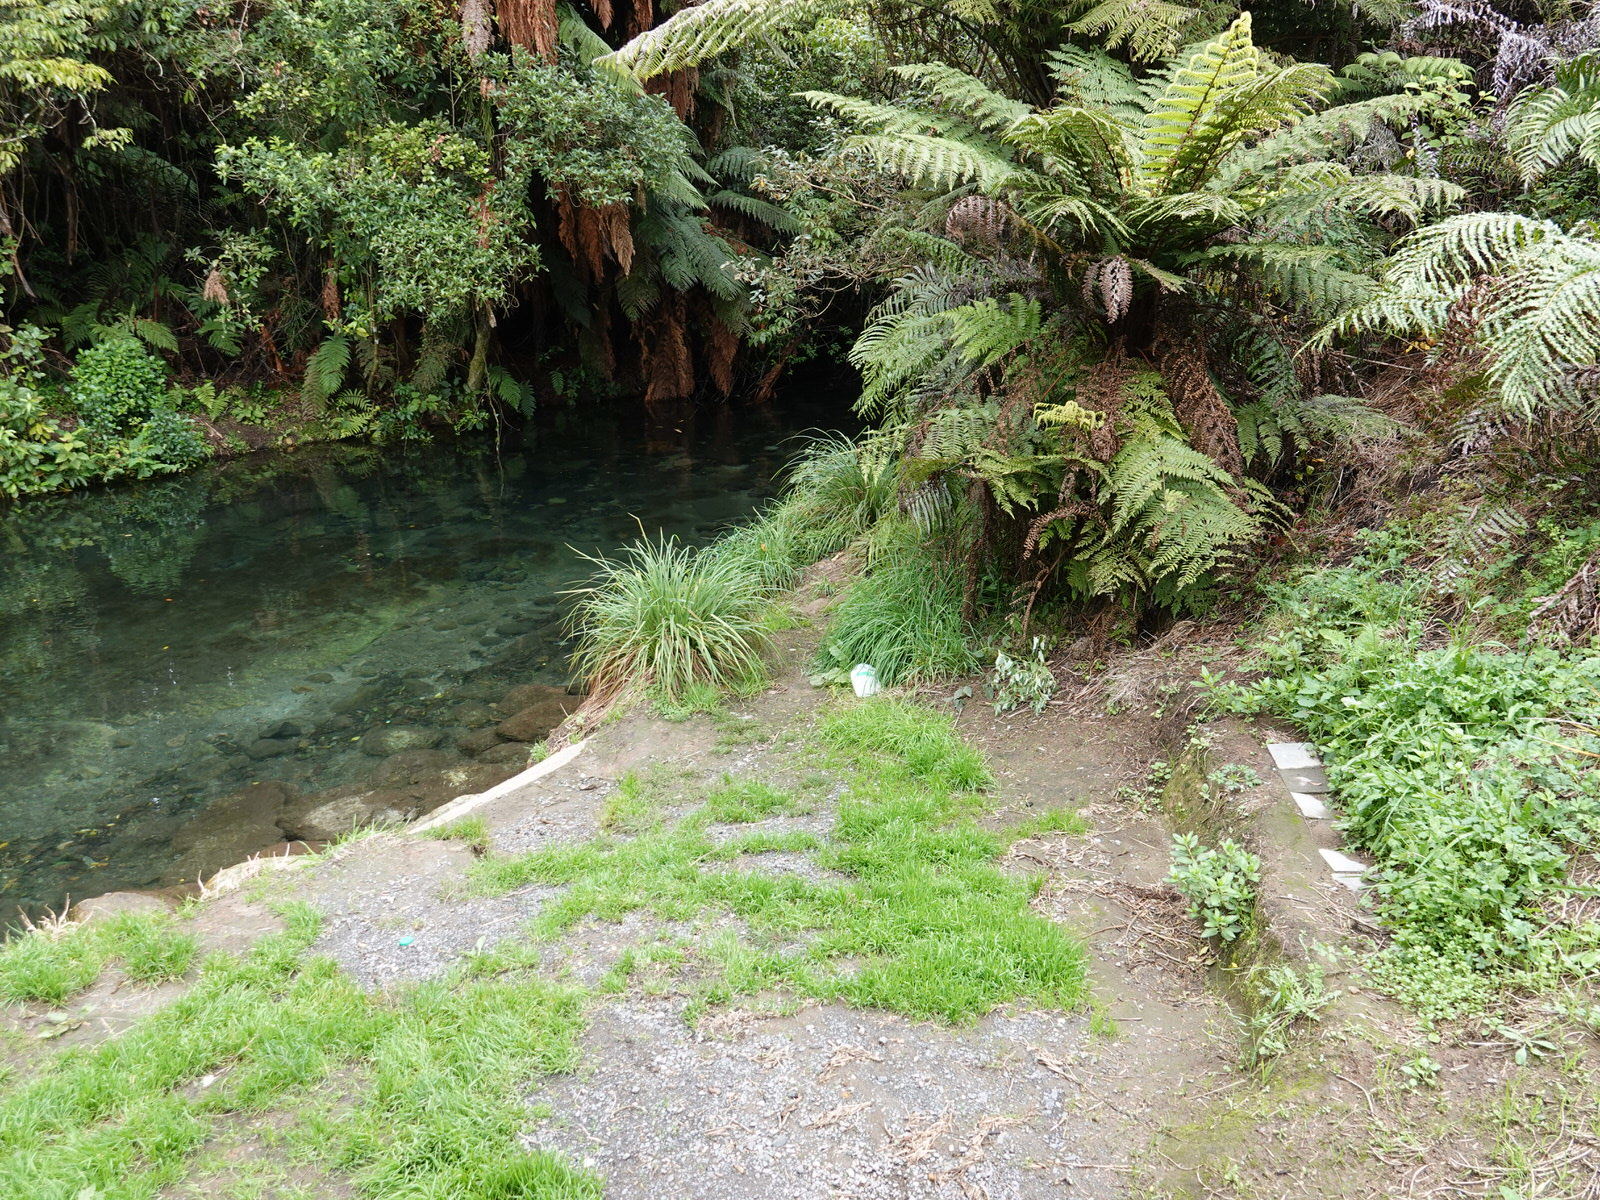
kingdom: Animalia
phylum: Chordata
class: Aves
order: Passeriformes
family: Petroicidae
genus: Petroica
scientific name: Petroica australis
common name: New zealand robin
